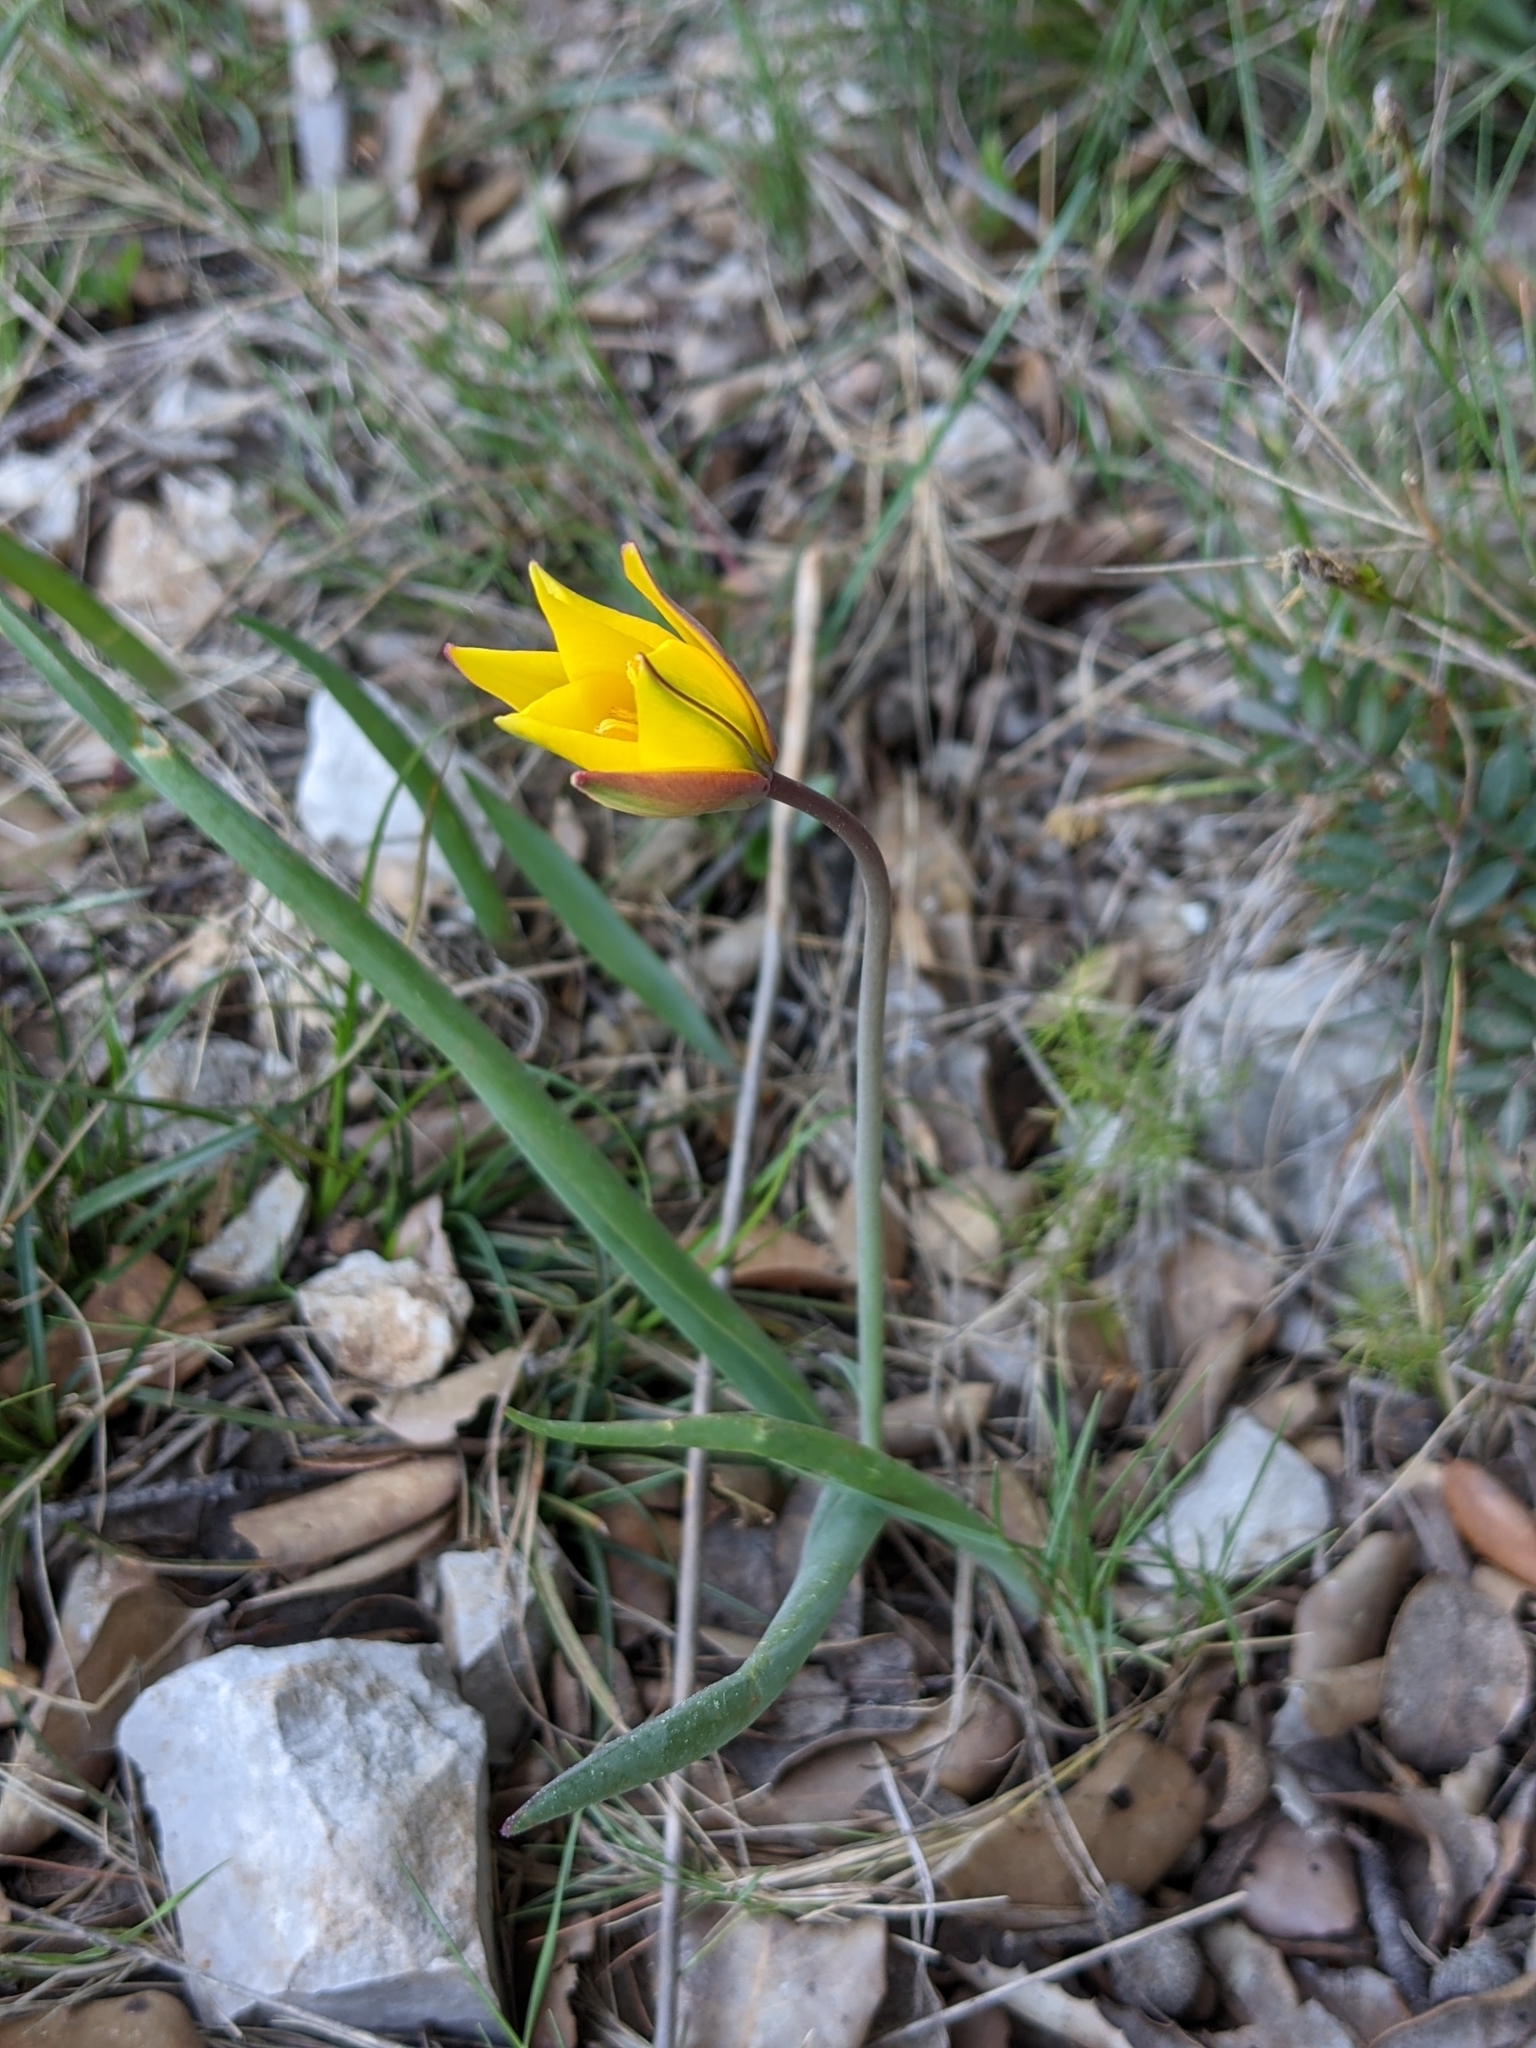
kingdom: Plantae
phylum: Tracheophyta
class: Liliopsida
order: Liliales
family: Liliaceae
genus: Tulipa
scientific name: Tulipa sylvestris
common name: Wild tulip
